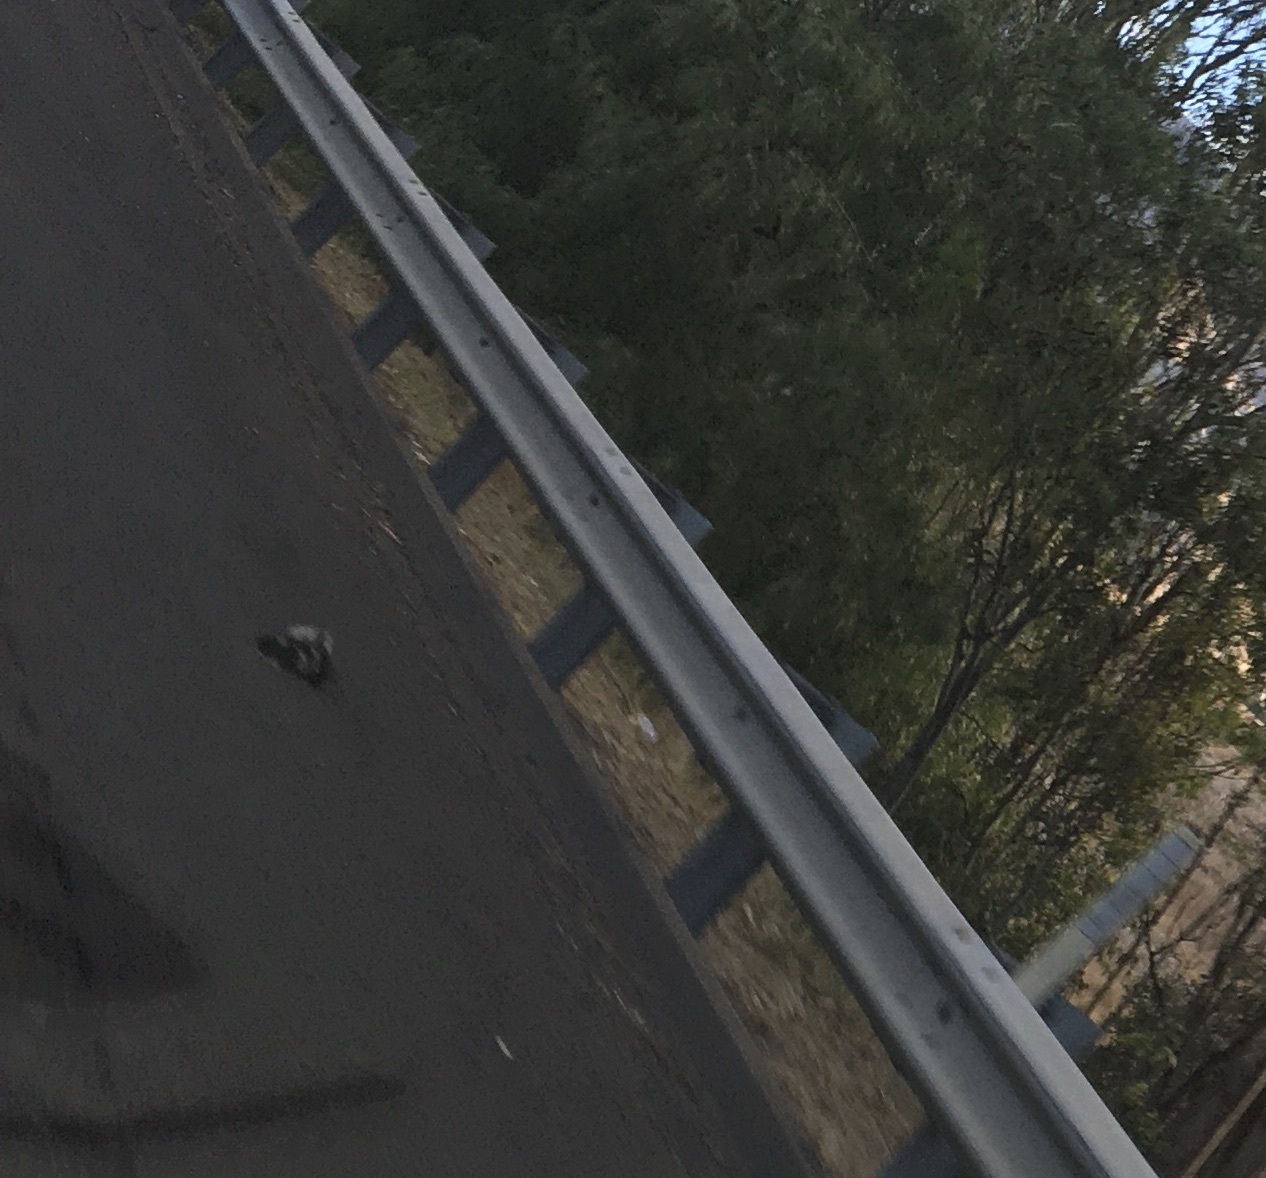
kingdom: Animalia
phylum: Chordata
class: Mammalia
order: Carnivora
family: Mephitidae
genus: Mephitis
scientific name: Mephitis mephitis
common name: Striped skunk
